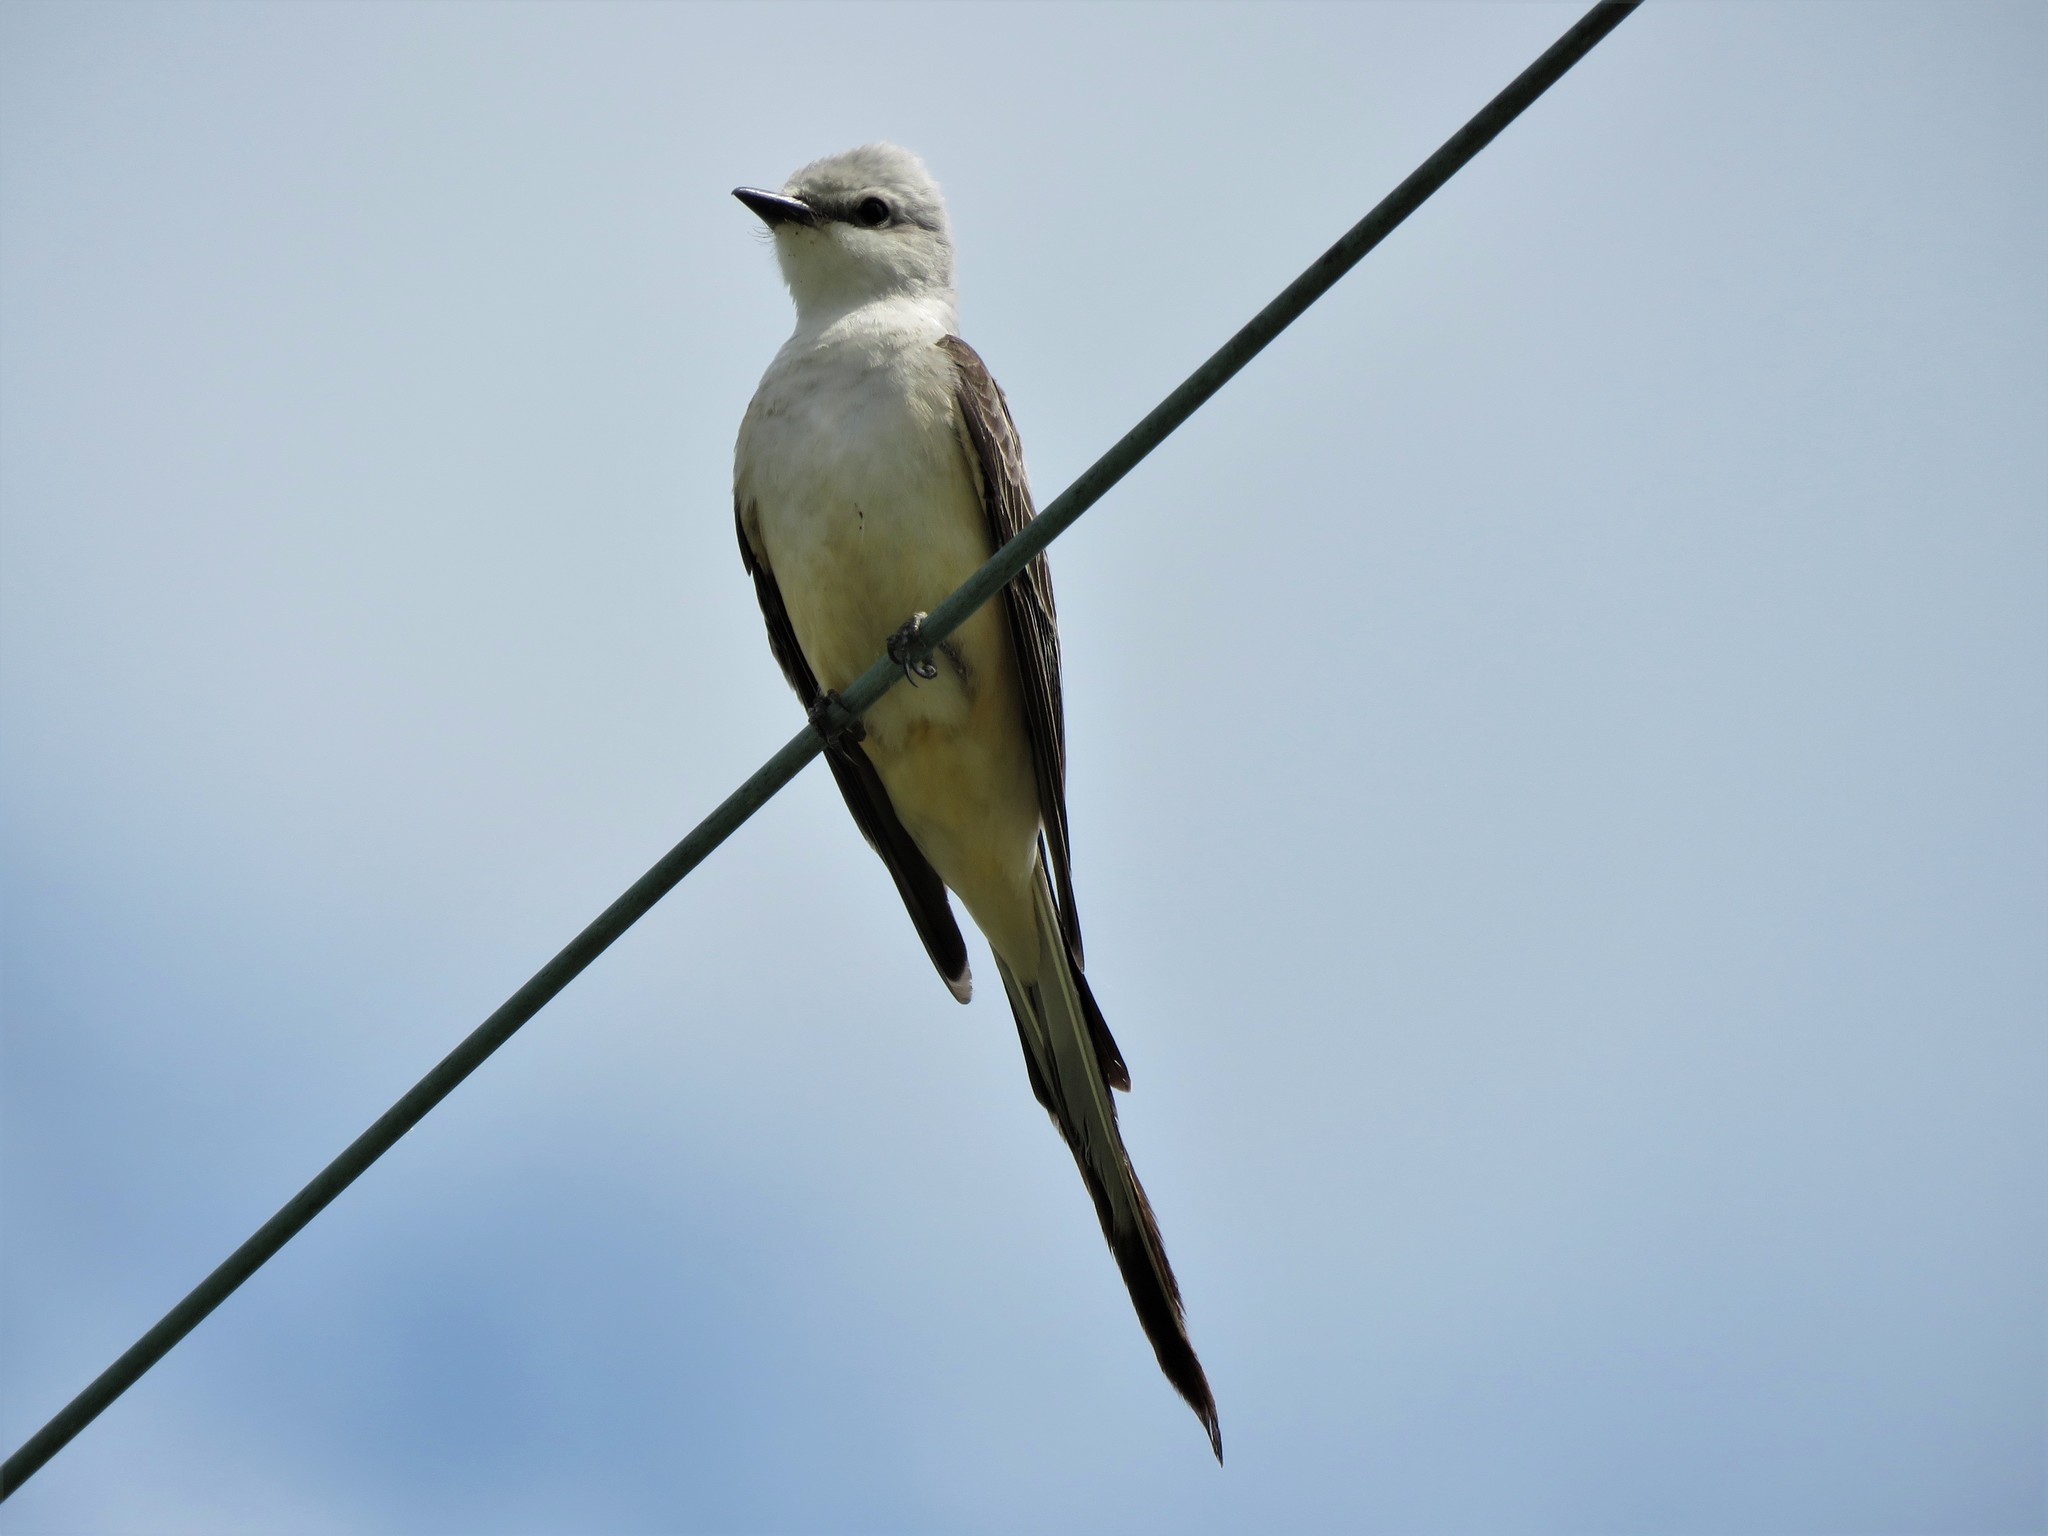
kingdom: Animalia
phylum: Chordata
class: Aves
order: Passeriformes
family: Tyrannidae
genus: Tyrannus
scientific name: Tyrannus forficatus
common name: Scissor-tailed flycatcher
